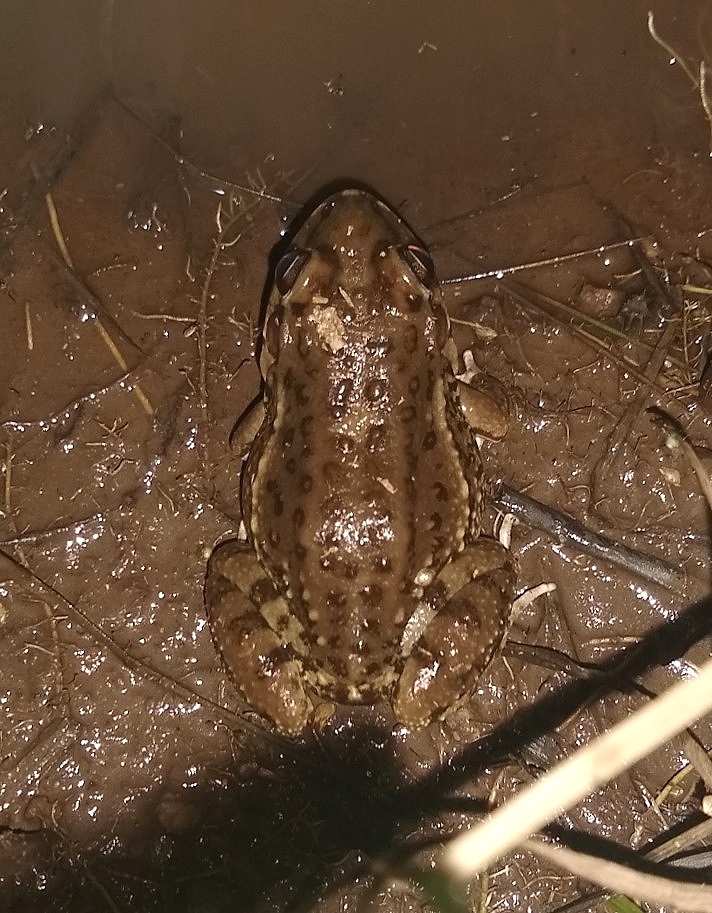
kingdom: Animalia
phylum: Chordata
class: Amphibia
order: Anura
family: Leptodactylidae
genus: Leptodactylus
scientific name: Leptodactylus bufonius
